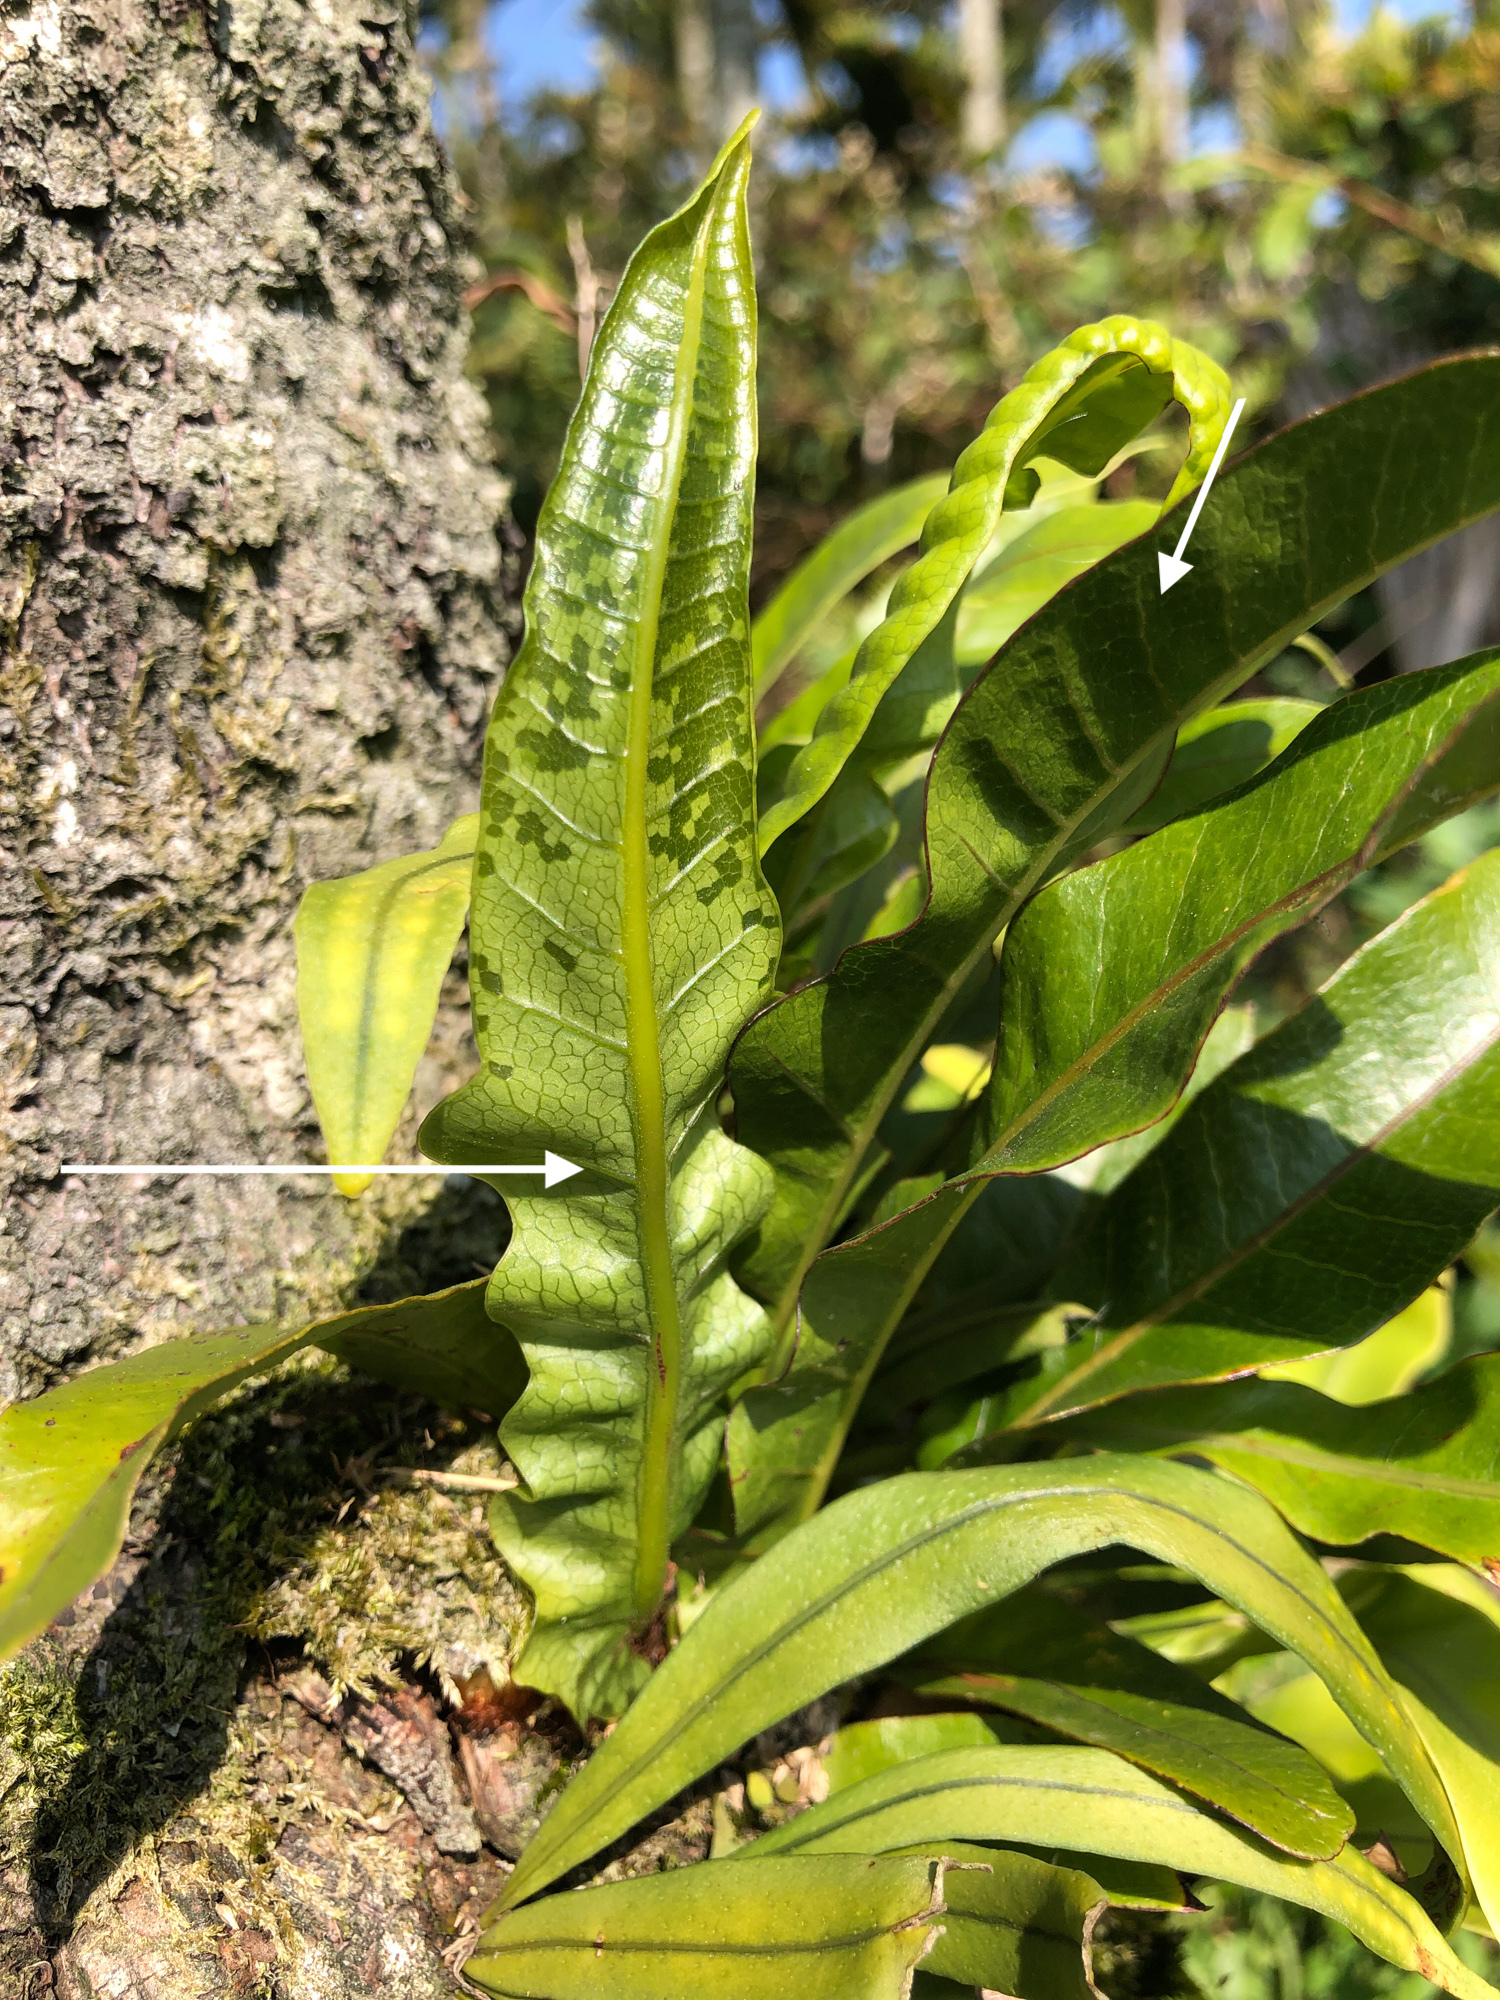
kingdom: Plantae
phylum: Tracheophyta
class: Polypodiopsida
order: Polypodiales
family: Polypodiaceae
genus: Drynaria
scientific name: Drynaria coronans
